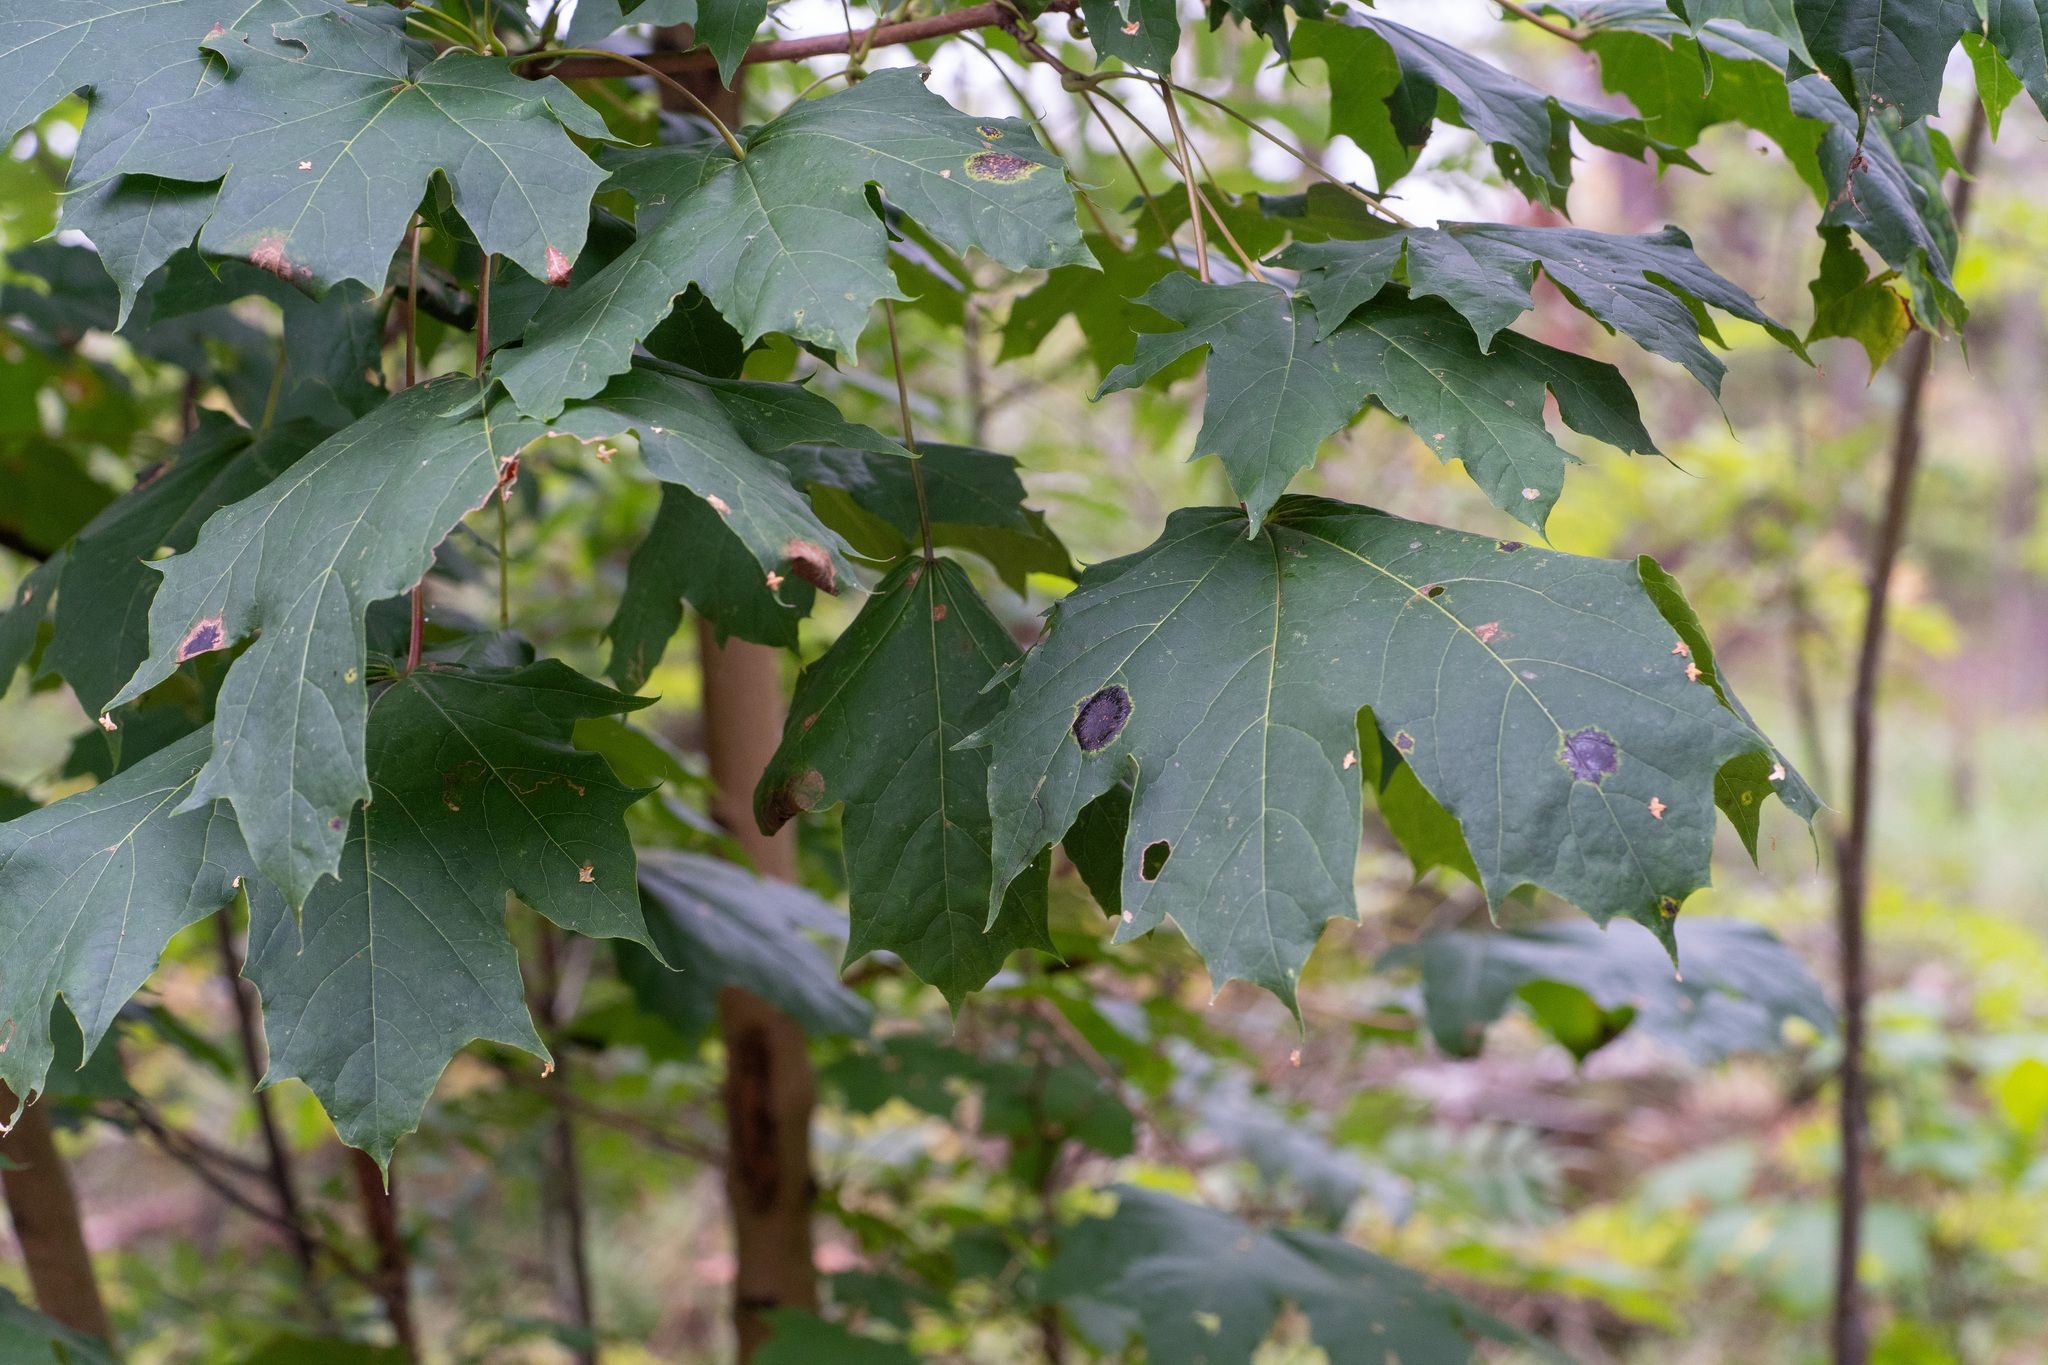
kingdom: Fungi
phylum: Ascomycota
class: Leotiomycetes
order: Rhytismatales
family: Rhytismataceae
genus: Rhytisma
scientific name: Rhytisma acerinum
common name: European tar spot
